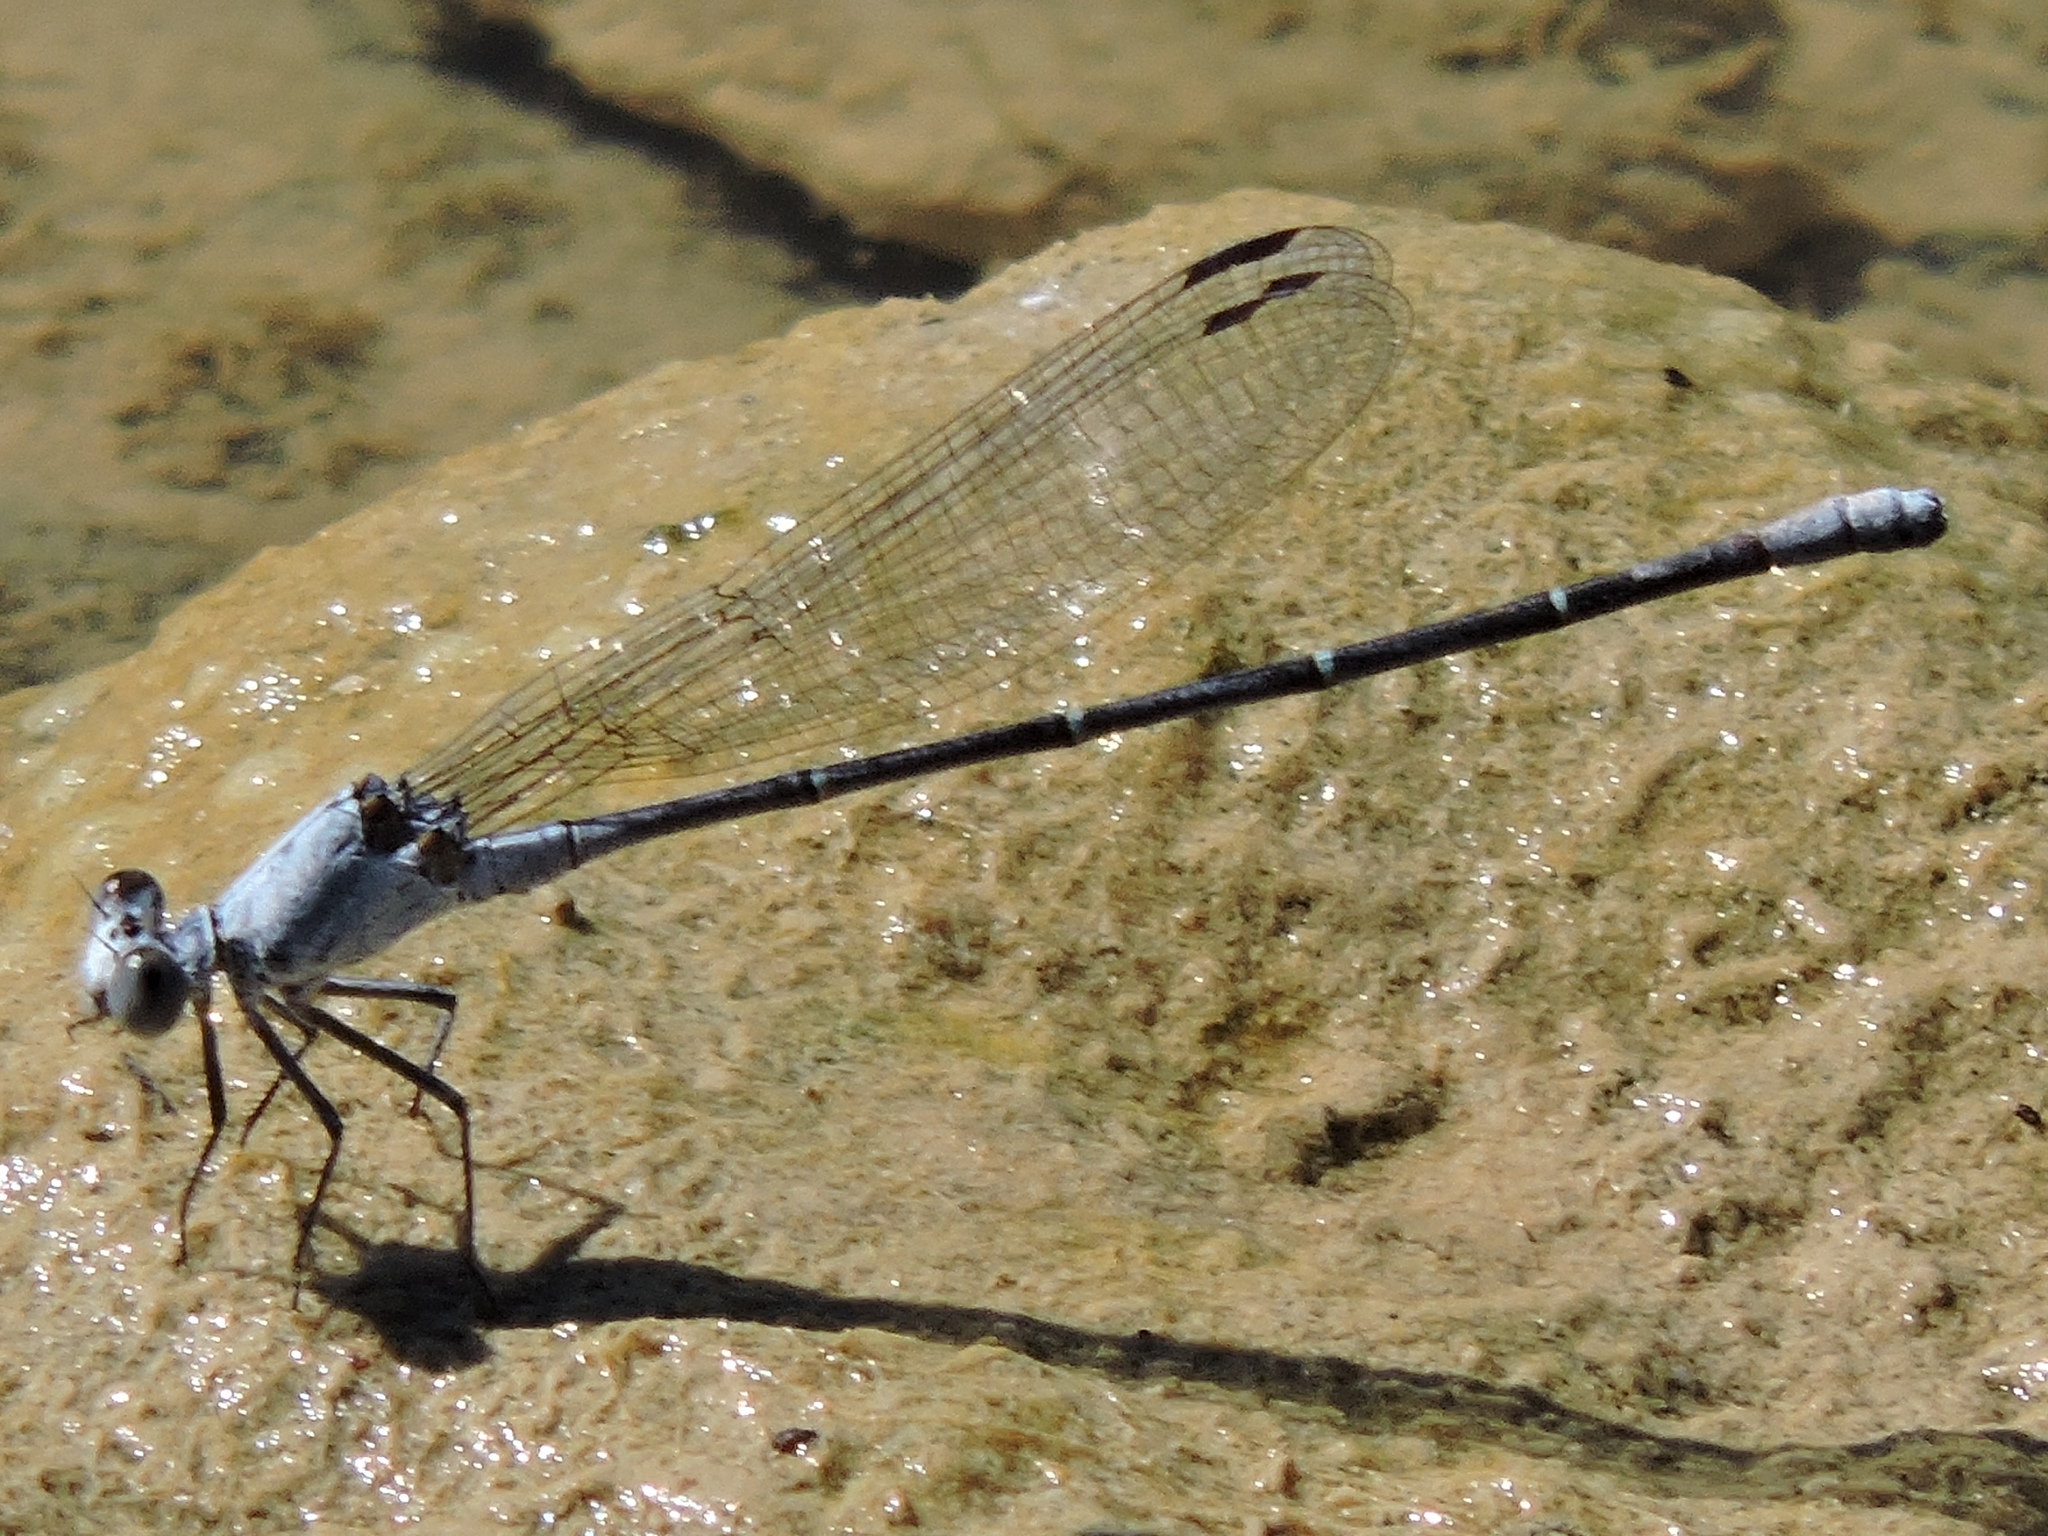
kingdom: Animalia
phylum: Arthropoda
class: Insecta
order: Odonata
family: Coenagrionidae
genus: Argia
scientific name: Argia moesta
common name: Powdered dancer
